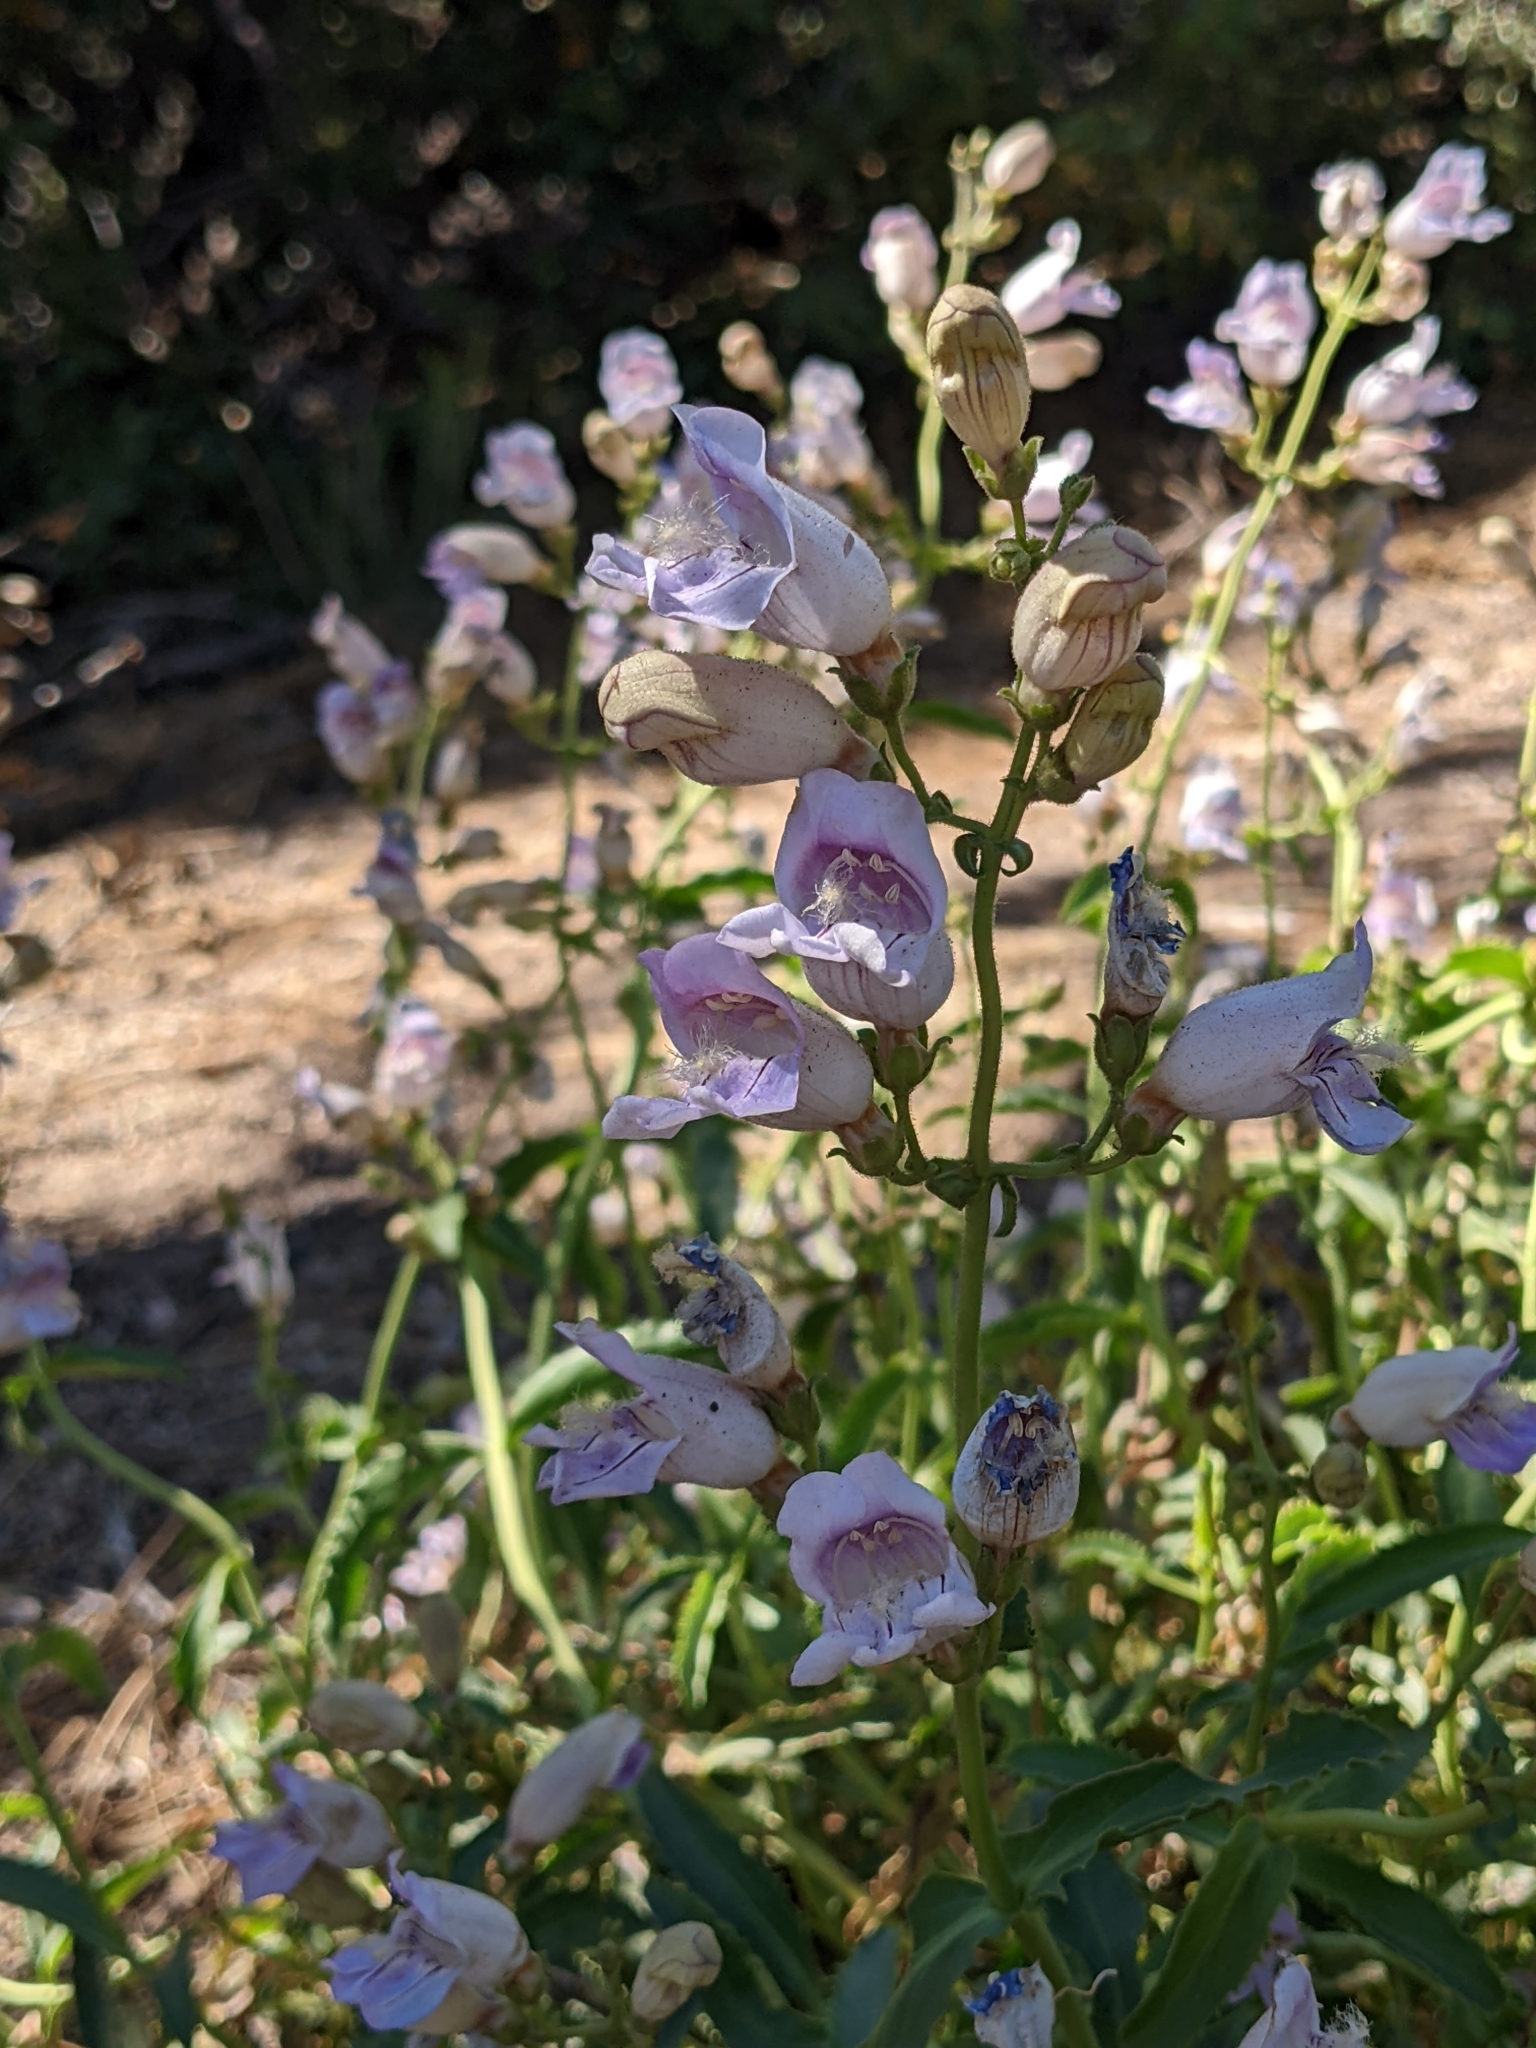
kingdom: Plantae
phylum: Tracheophyta
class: Magnoliopsida
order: Lamiales
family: Plantaginaceae
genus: Penstemon
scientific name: Penstemon grinnellii
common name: Grinnell's beardtongue
